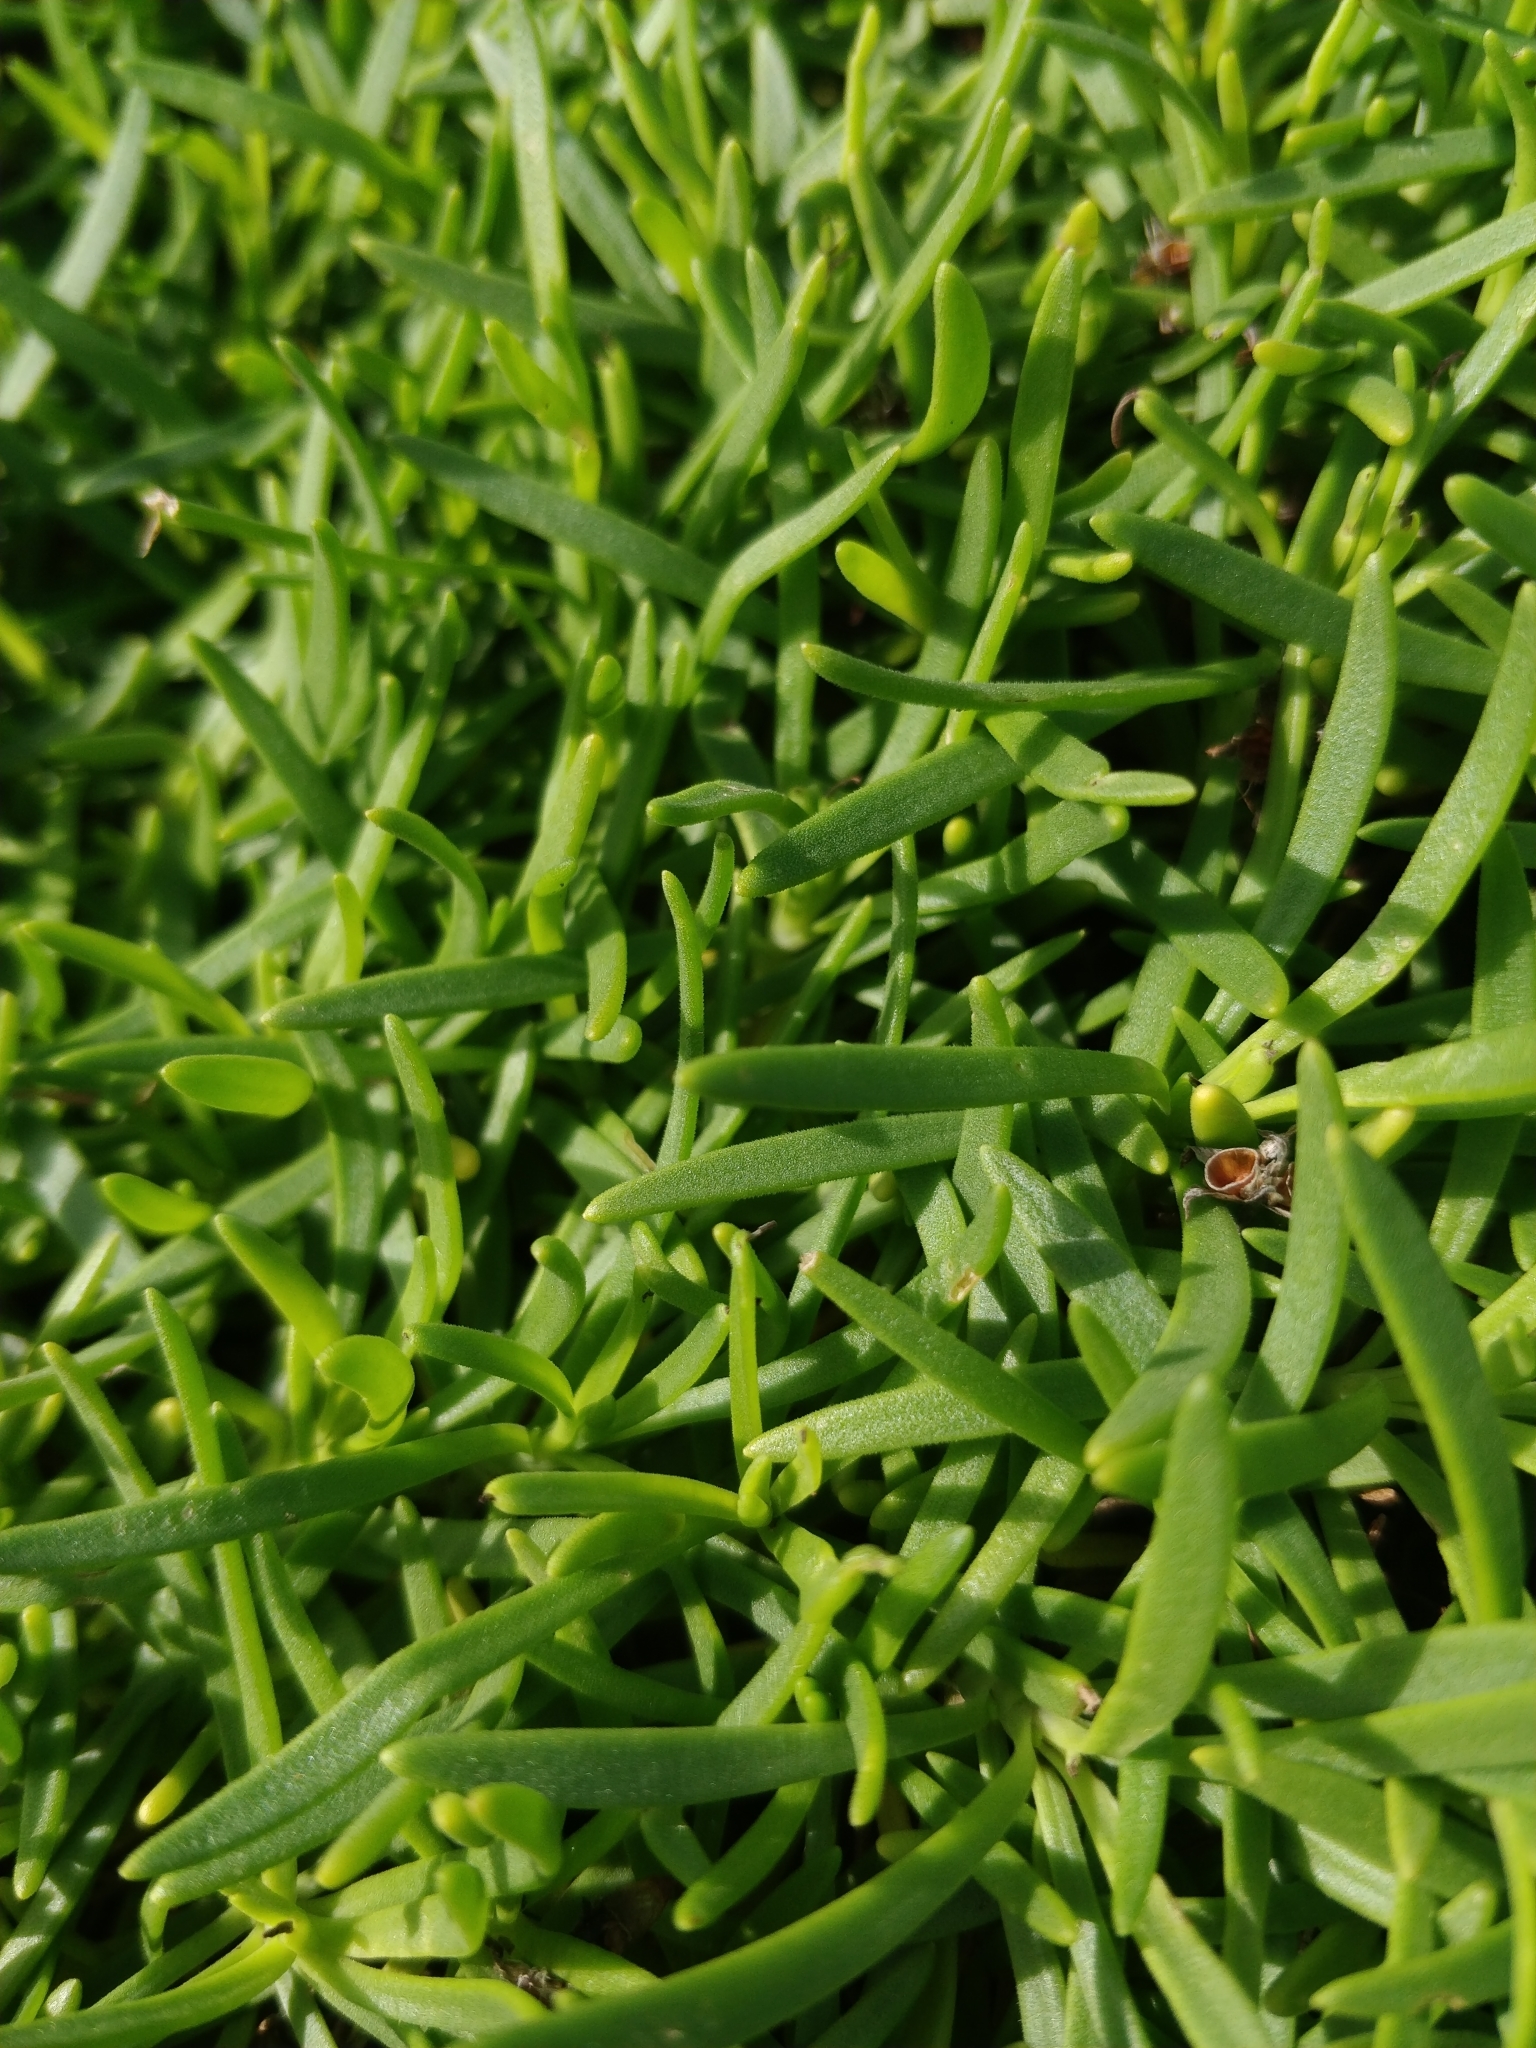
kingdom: Plantae
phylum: Tracheophyta
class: Magnoliopsida
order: Lamiales
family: Plantaginaceae
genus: Plantago
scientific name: Plantago arborescens
